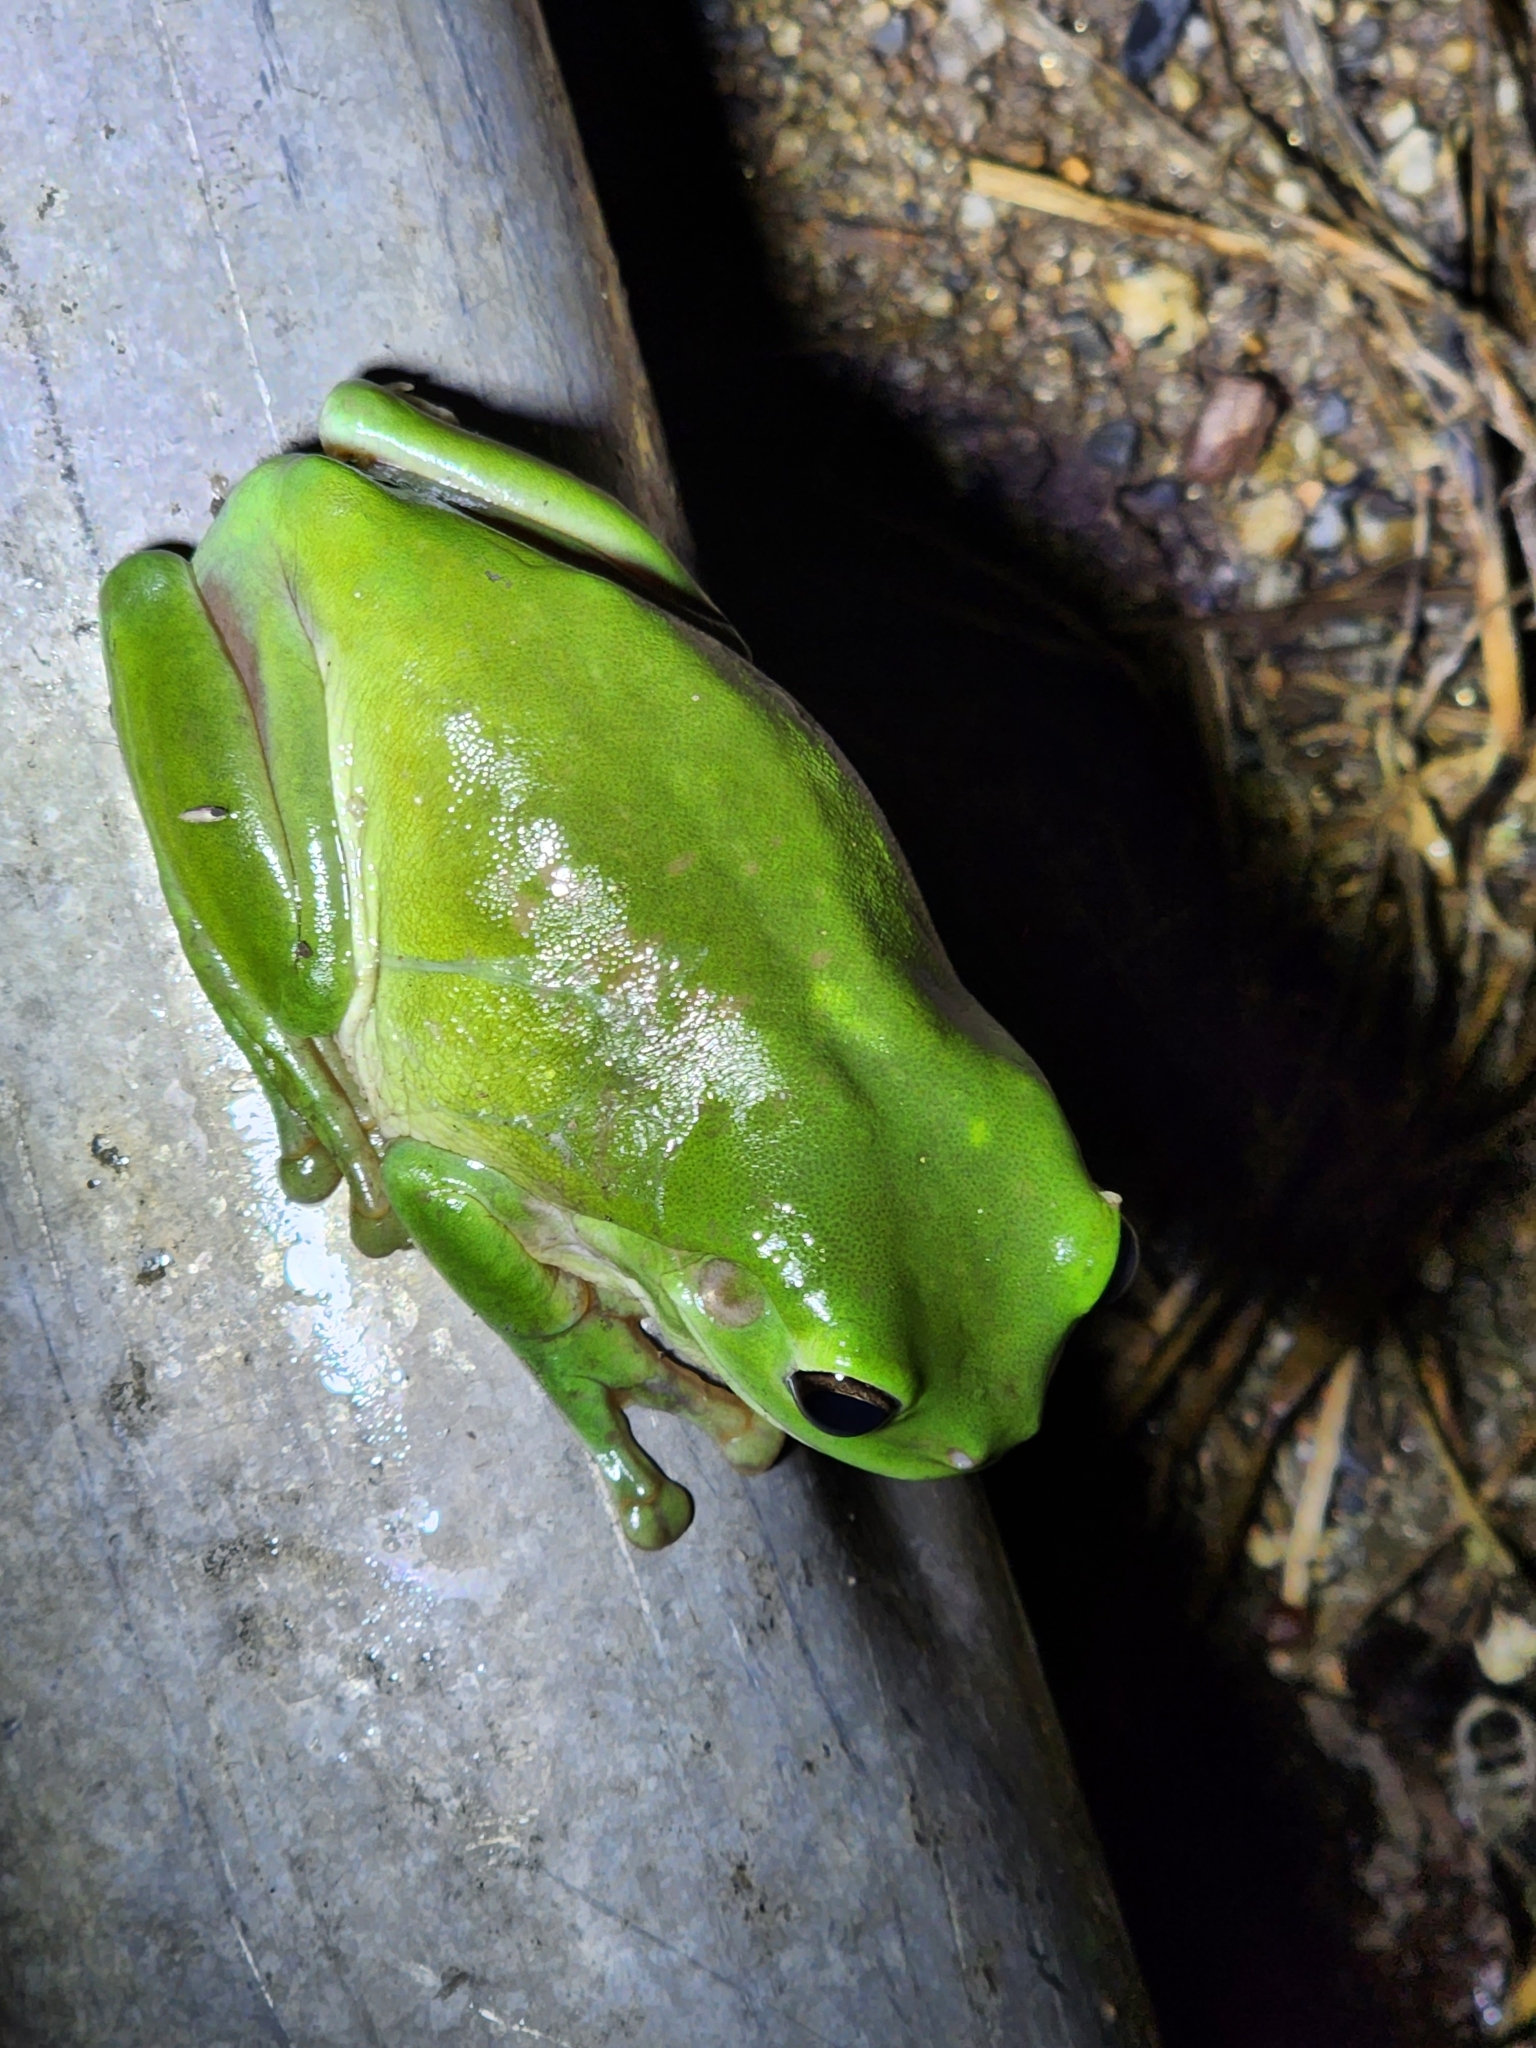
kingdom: Animalia
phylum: Chordata
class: Amphibia
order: Anura
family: Pelodryadidae
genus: Ranoidea
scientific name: Ranoidea caerulea
